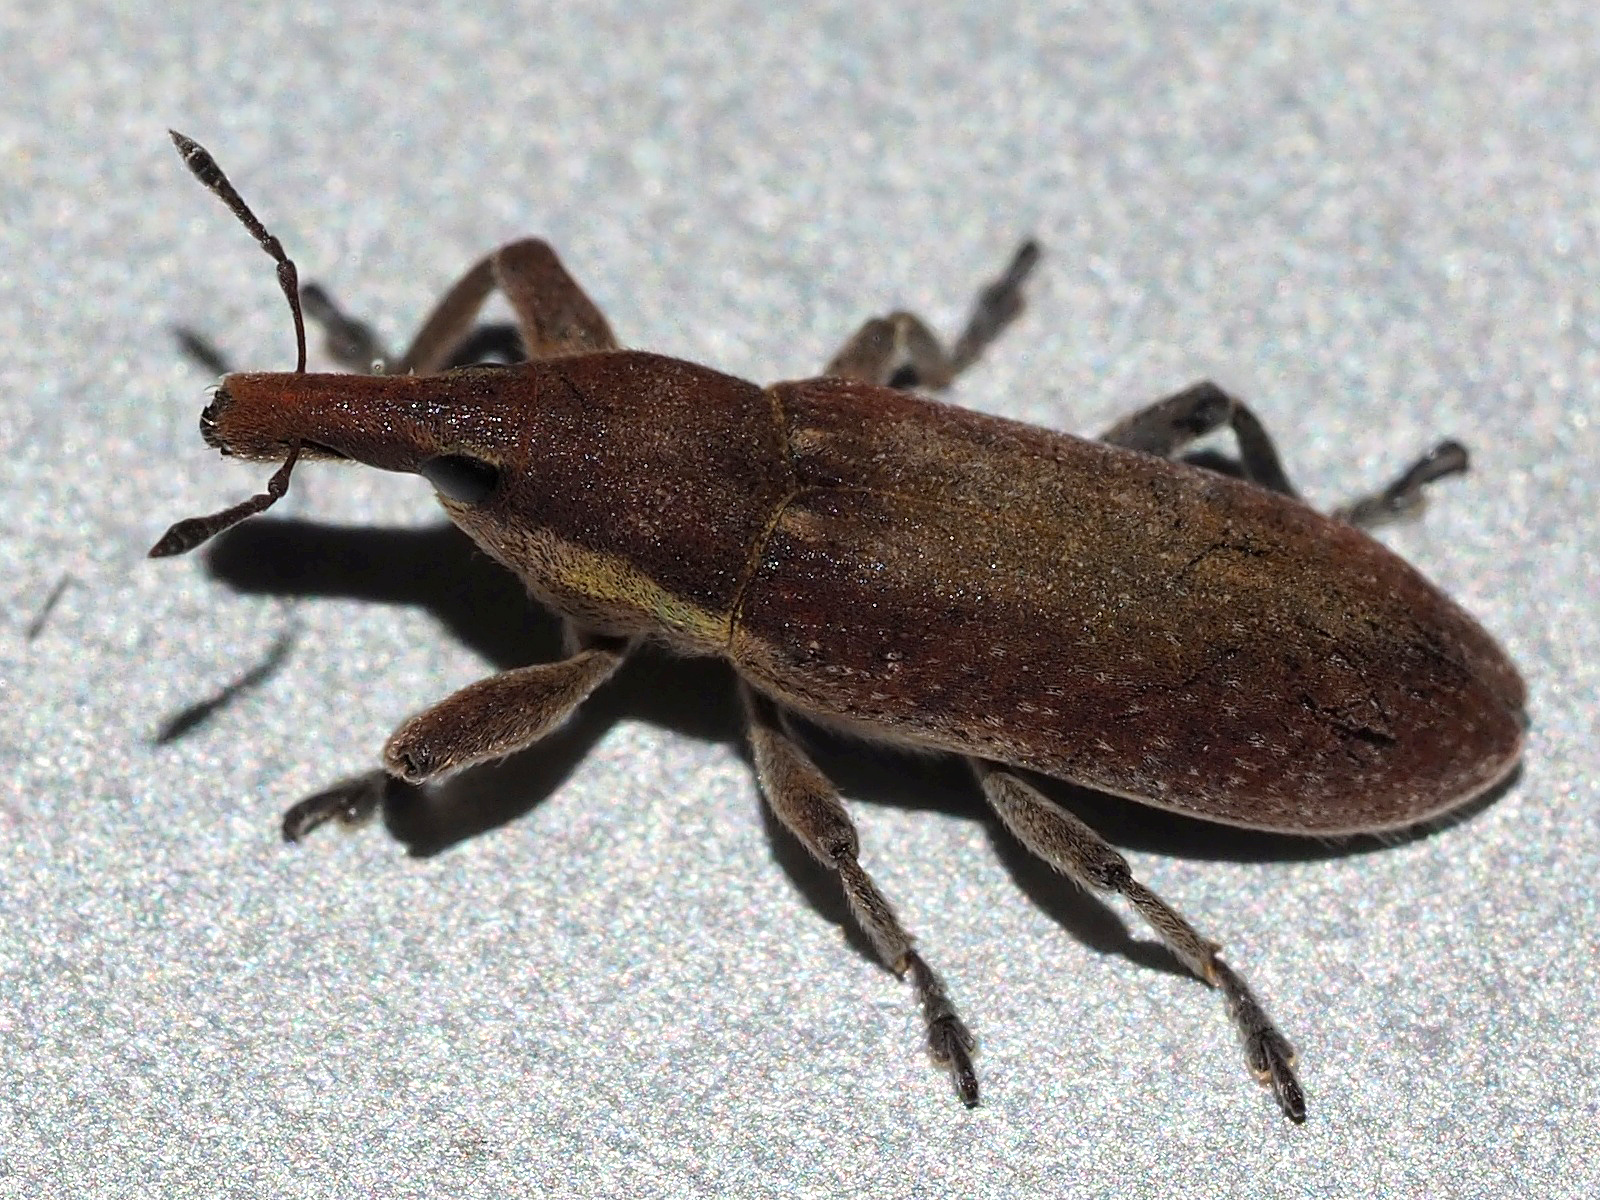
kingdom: Animalia
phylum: Arthropoda
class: Insecta
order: Coleoptera
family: Curculionidae
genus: Lixus
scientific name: Lixus vilis
